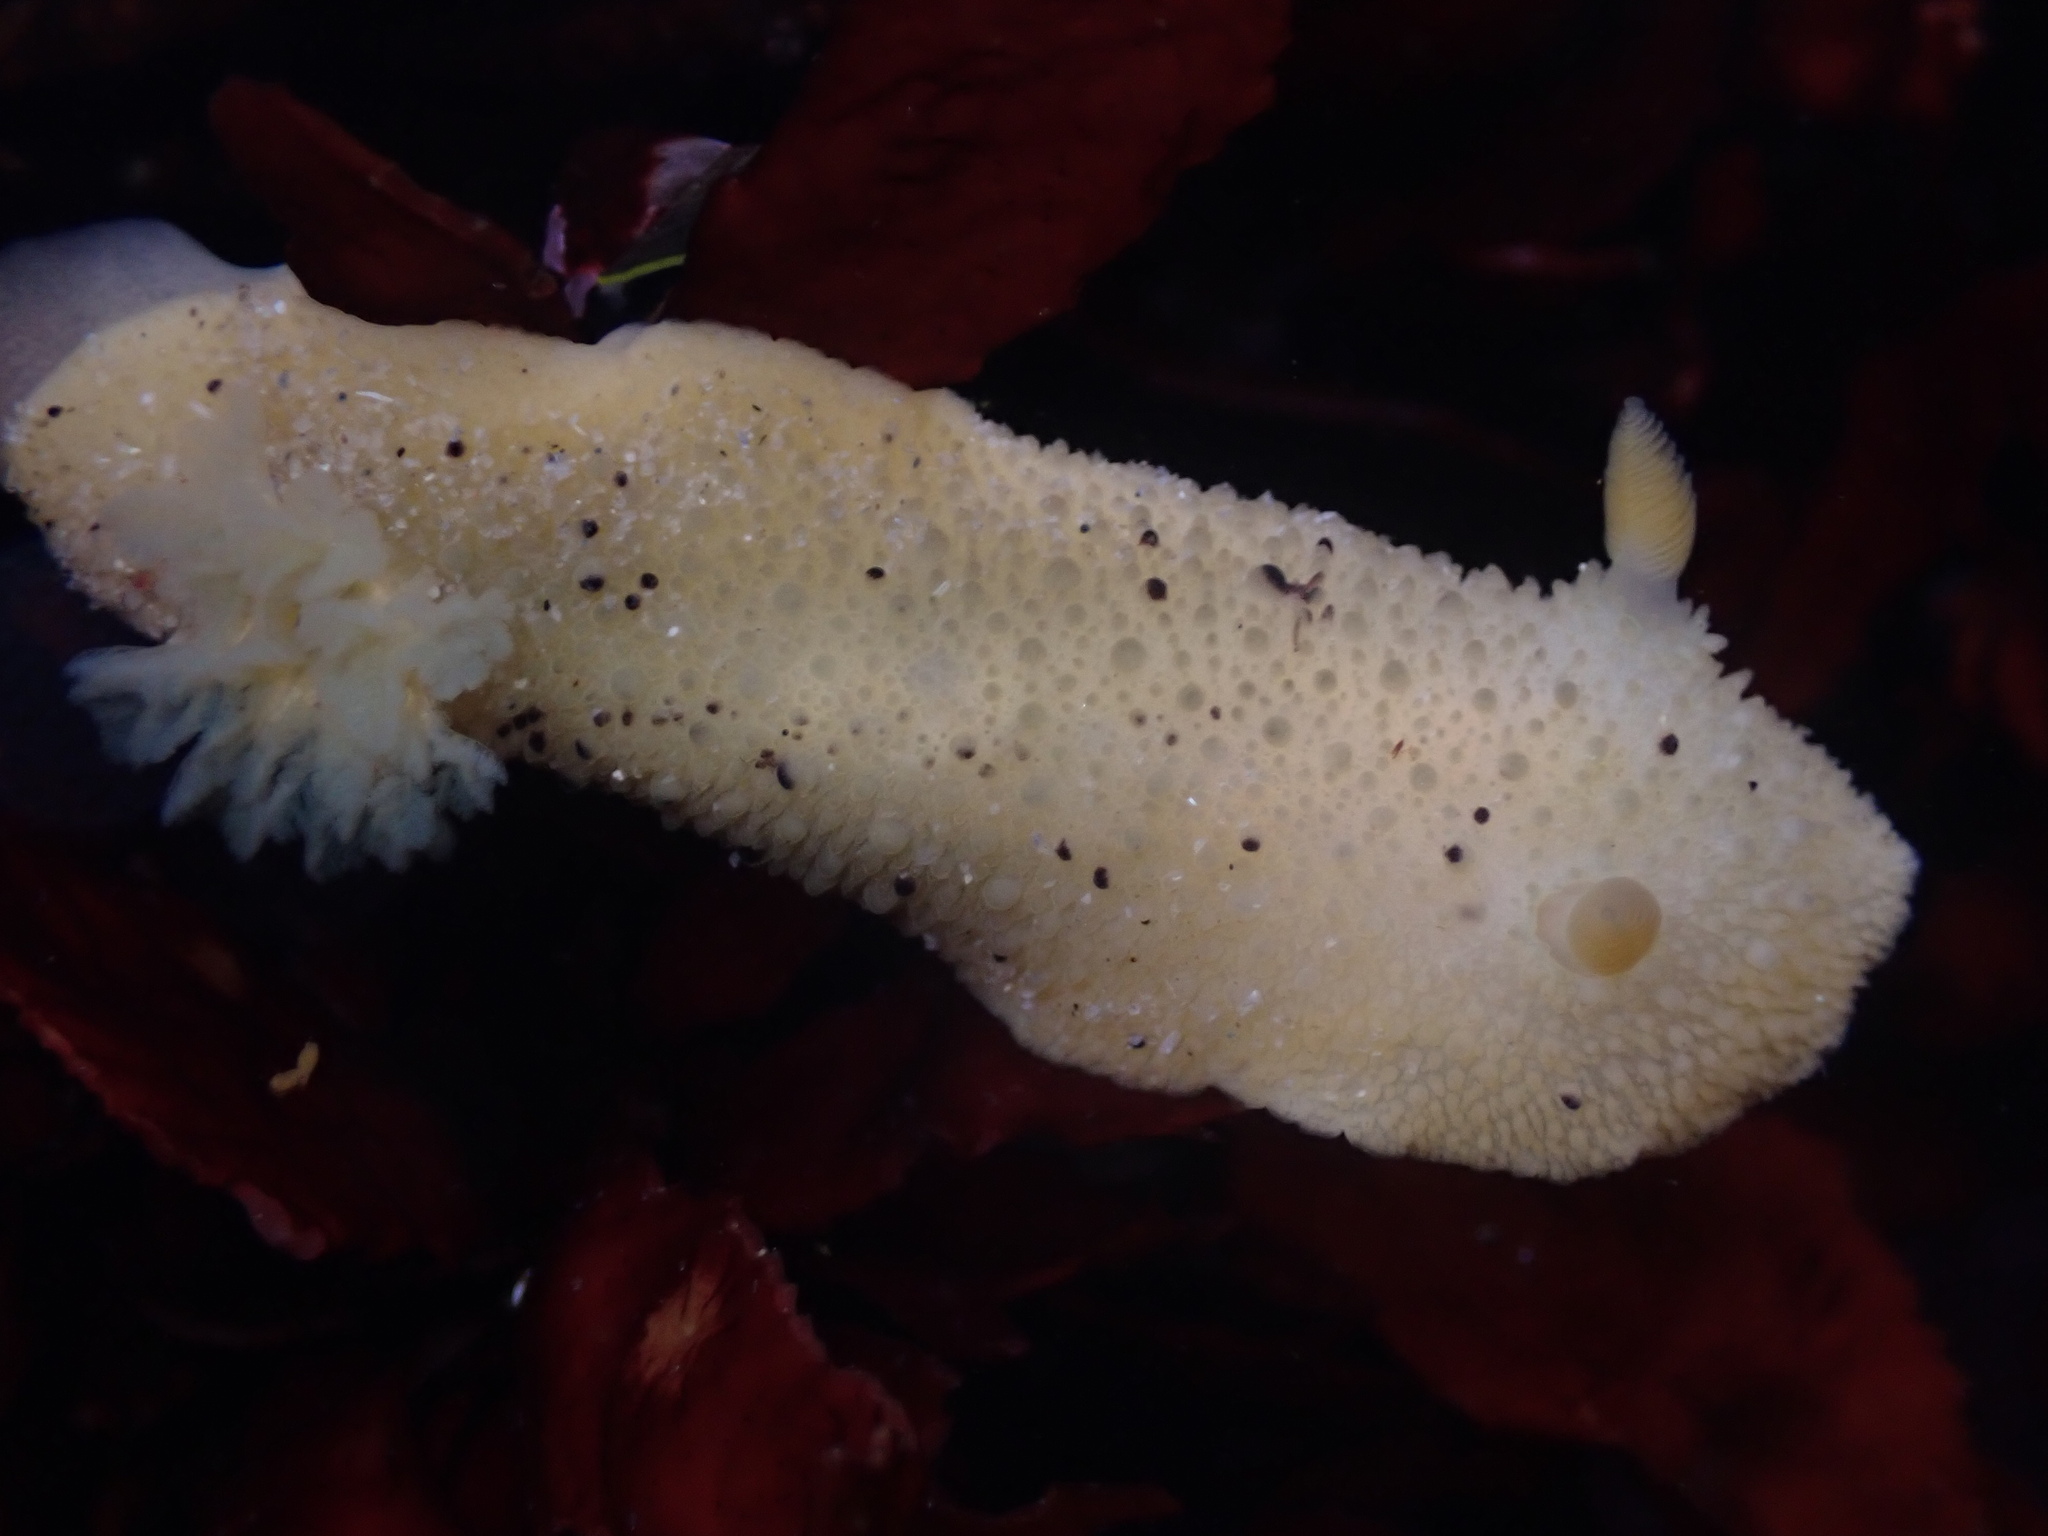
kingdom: Animalia
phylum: Mollusca
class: Gastropoda
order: Nudibranchia
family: Dorididae
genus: Doris
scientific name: Doris montereyensis
